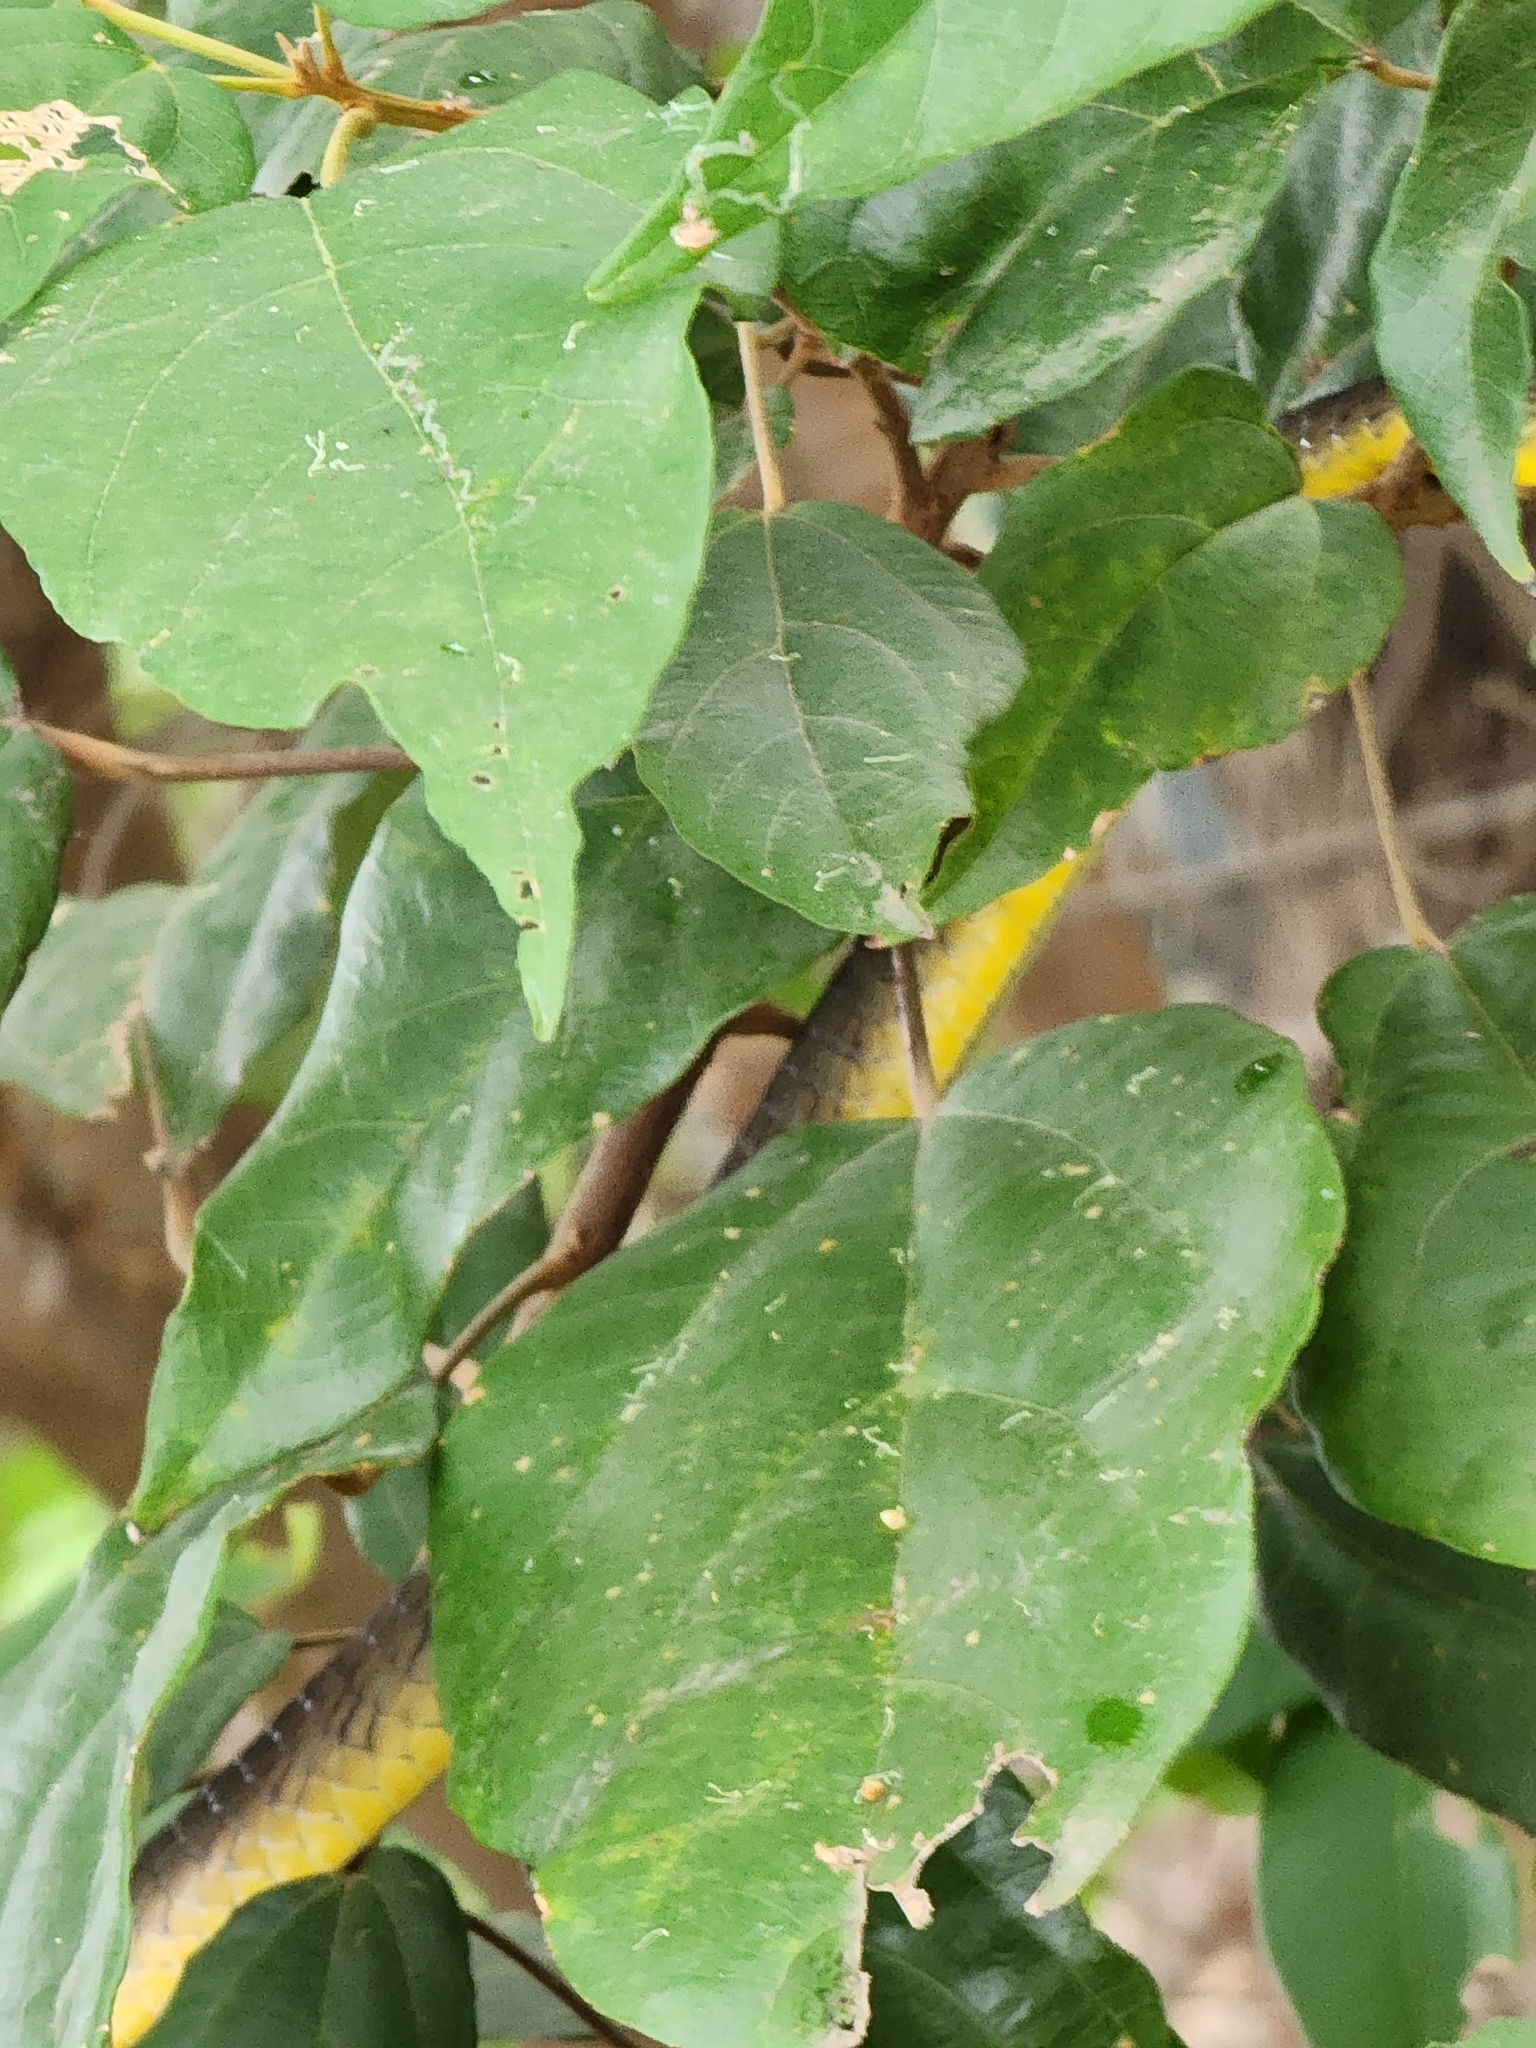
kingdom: Animalia
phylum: Chordata
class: Squamata
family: Colubridae
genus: Dendrelaphis
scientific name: Dendrelaphis punctulatus
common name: Common tree snake
